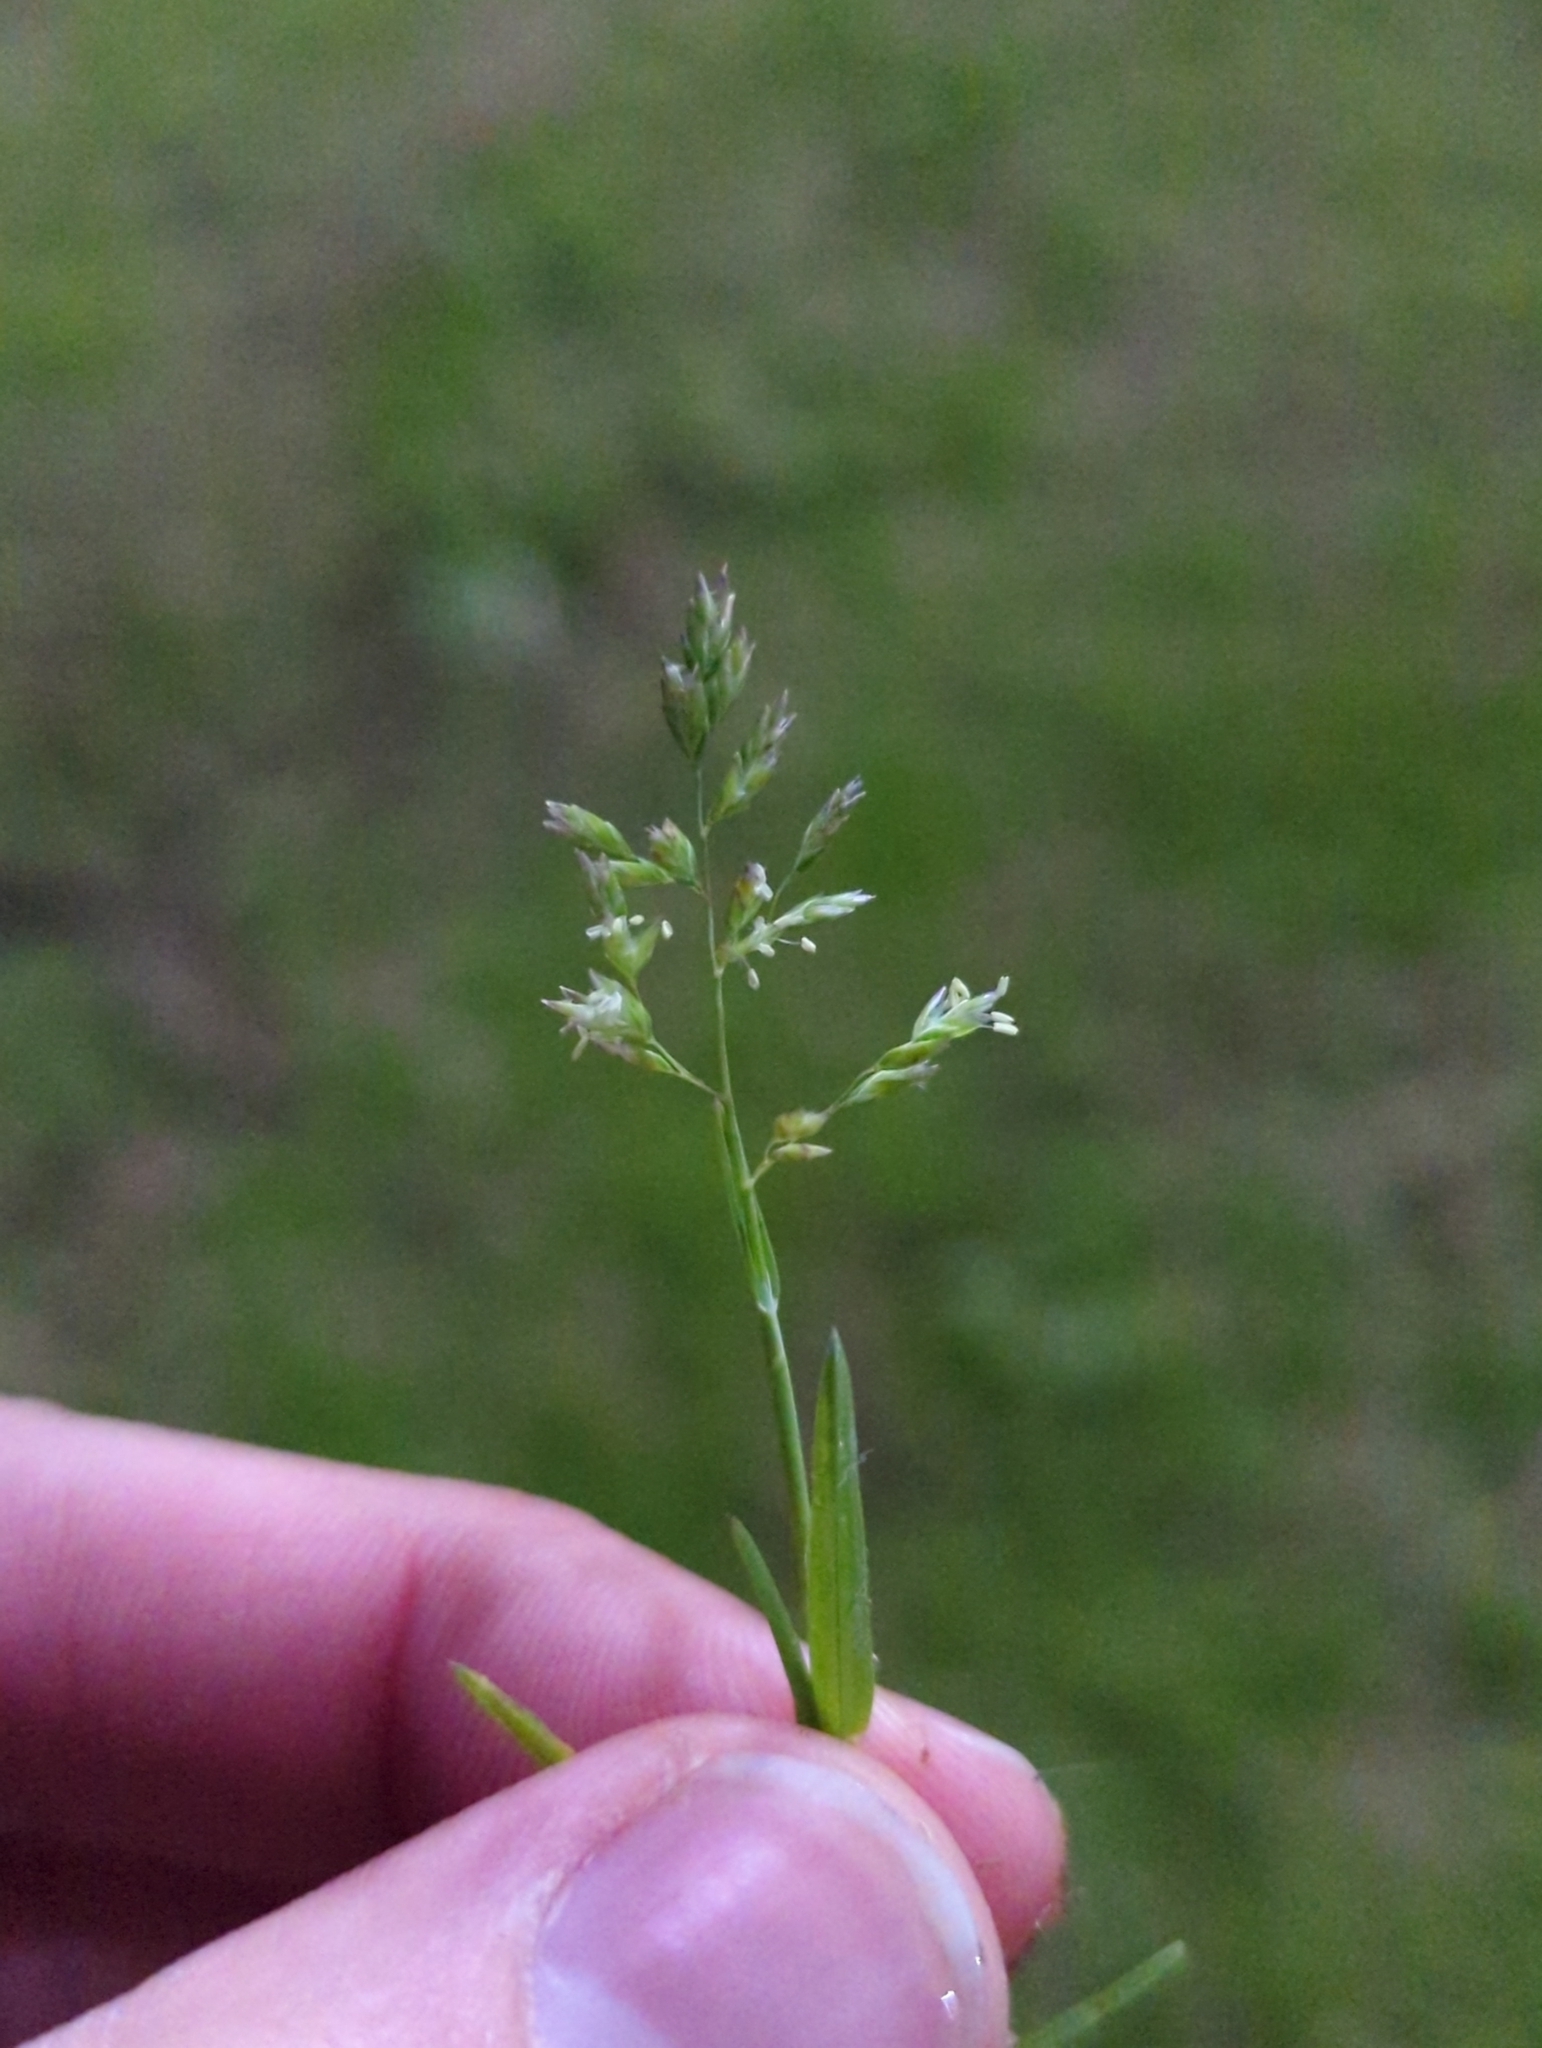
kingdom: Plantae
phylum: Tracheophyta
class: Liliopsida
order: Poales
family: Poaceae
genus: Poa
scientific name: Poa annua
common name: Annual bluegrass
